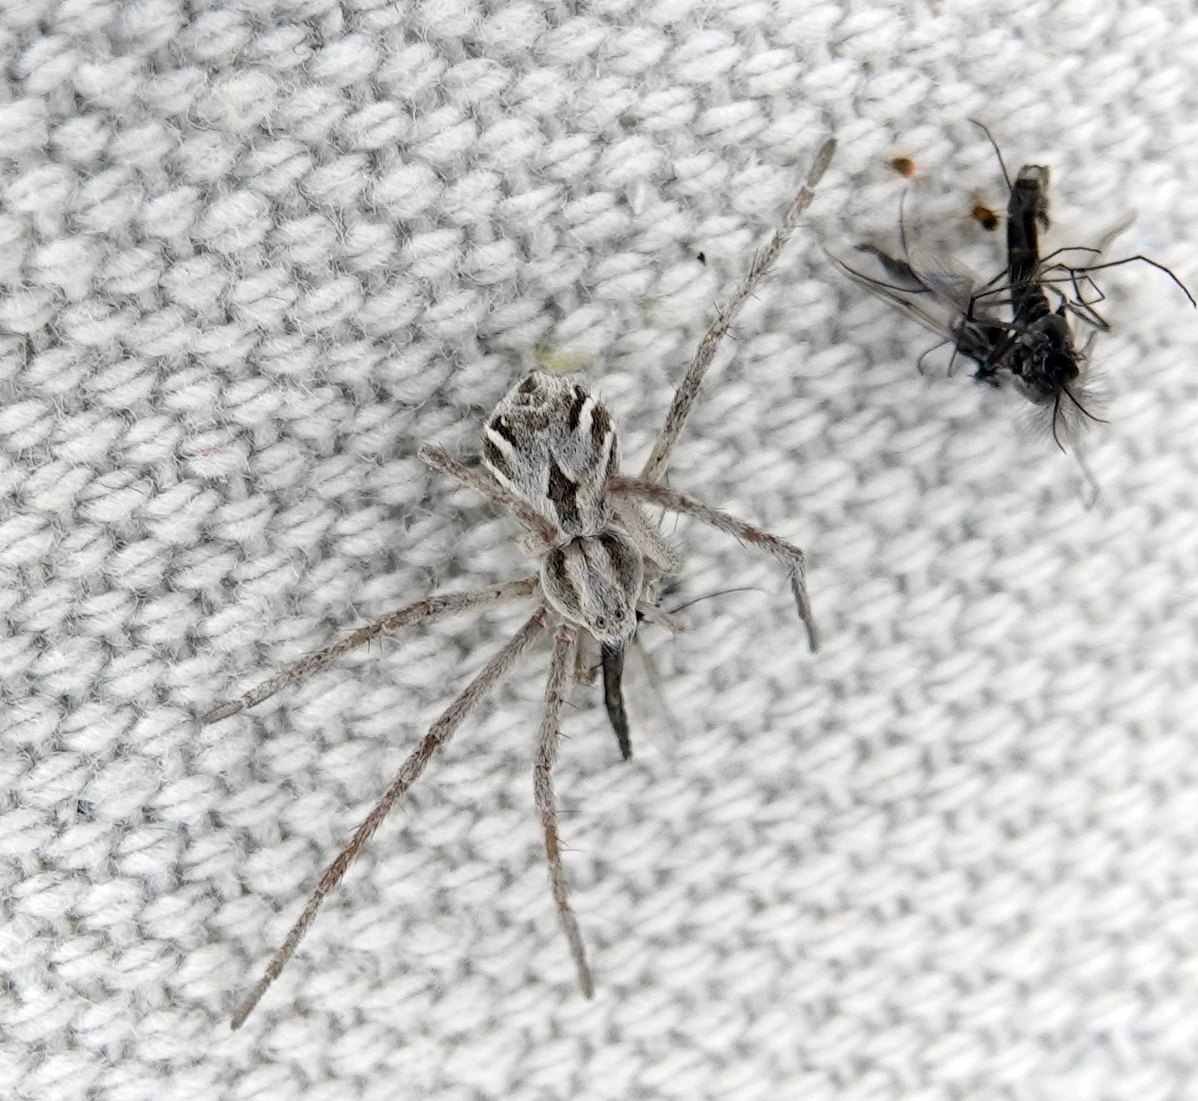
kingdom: Animalia
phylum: Arthropoda
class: Arachnida
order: Araneae
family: Philodromidae
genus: Rhysodromus
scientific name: Rhysodromus histrio
